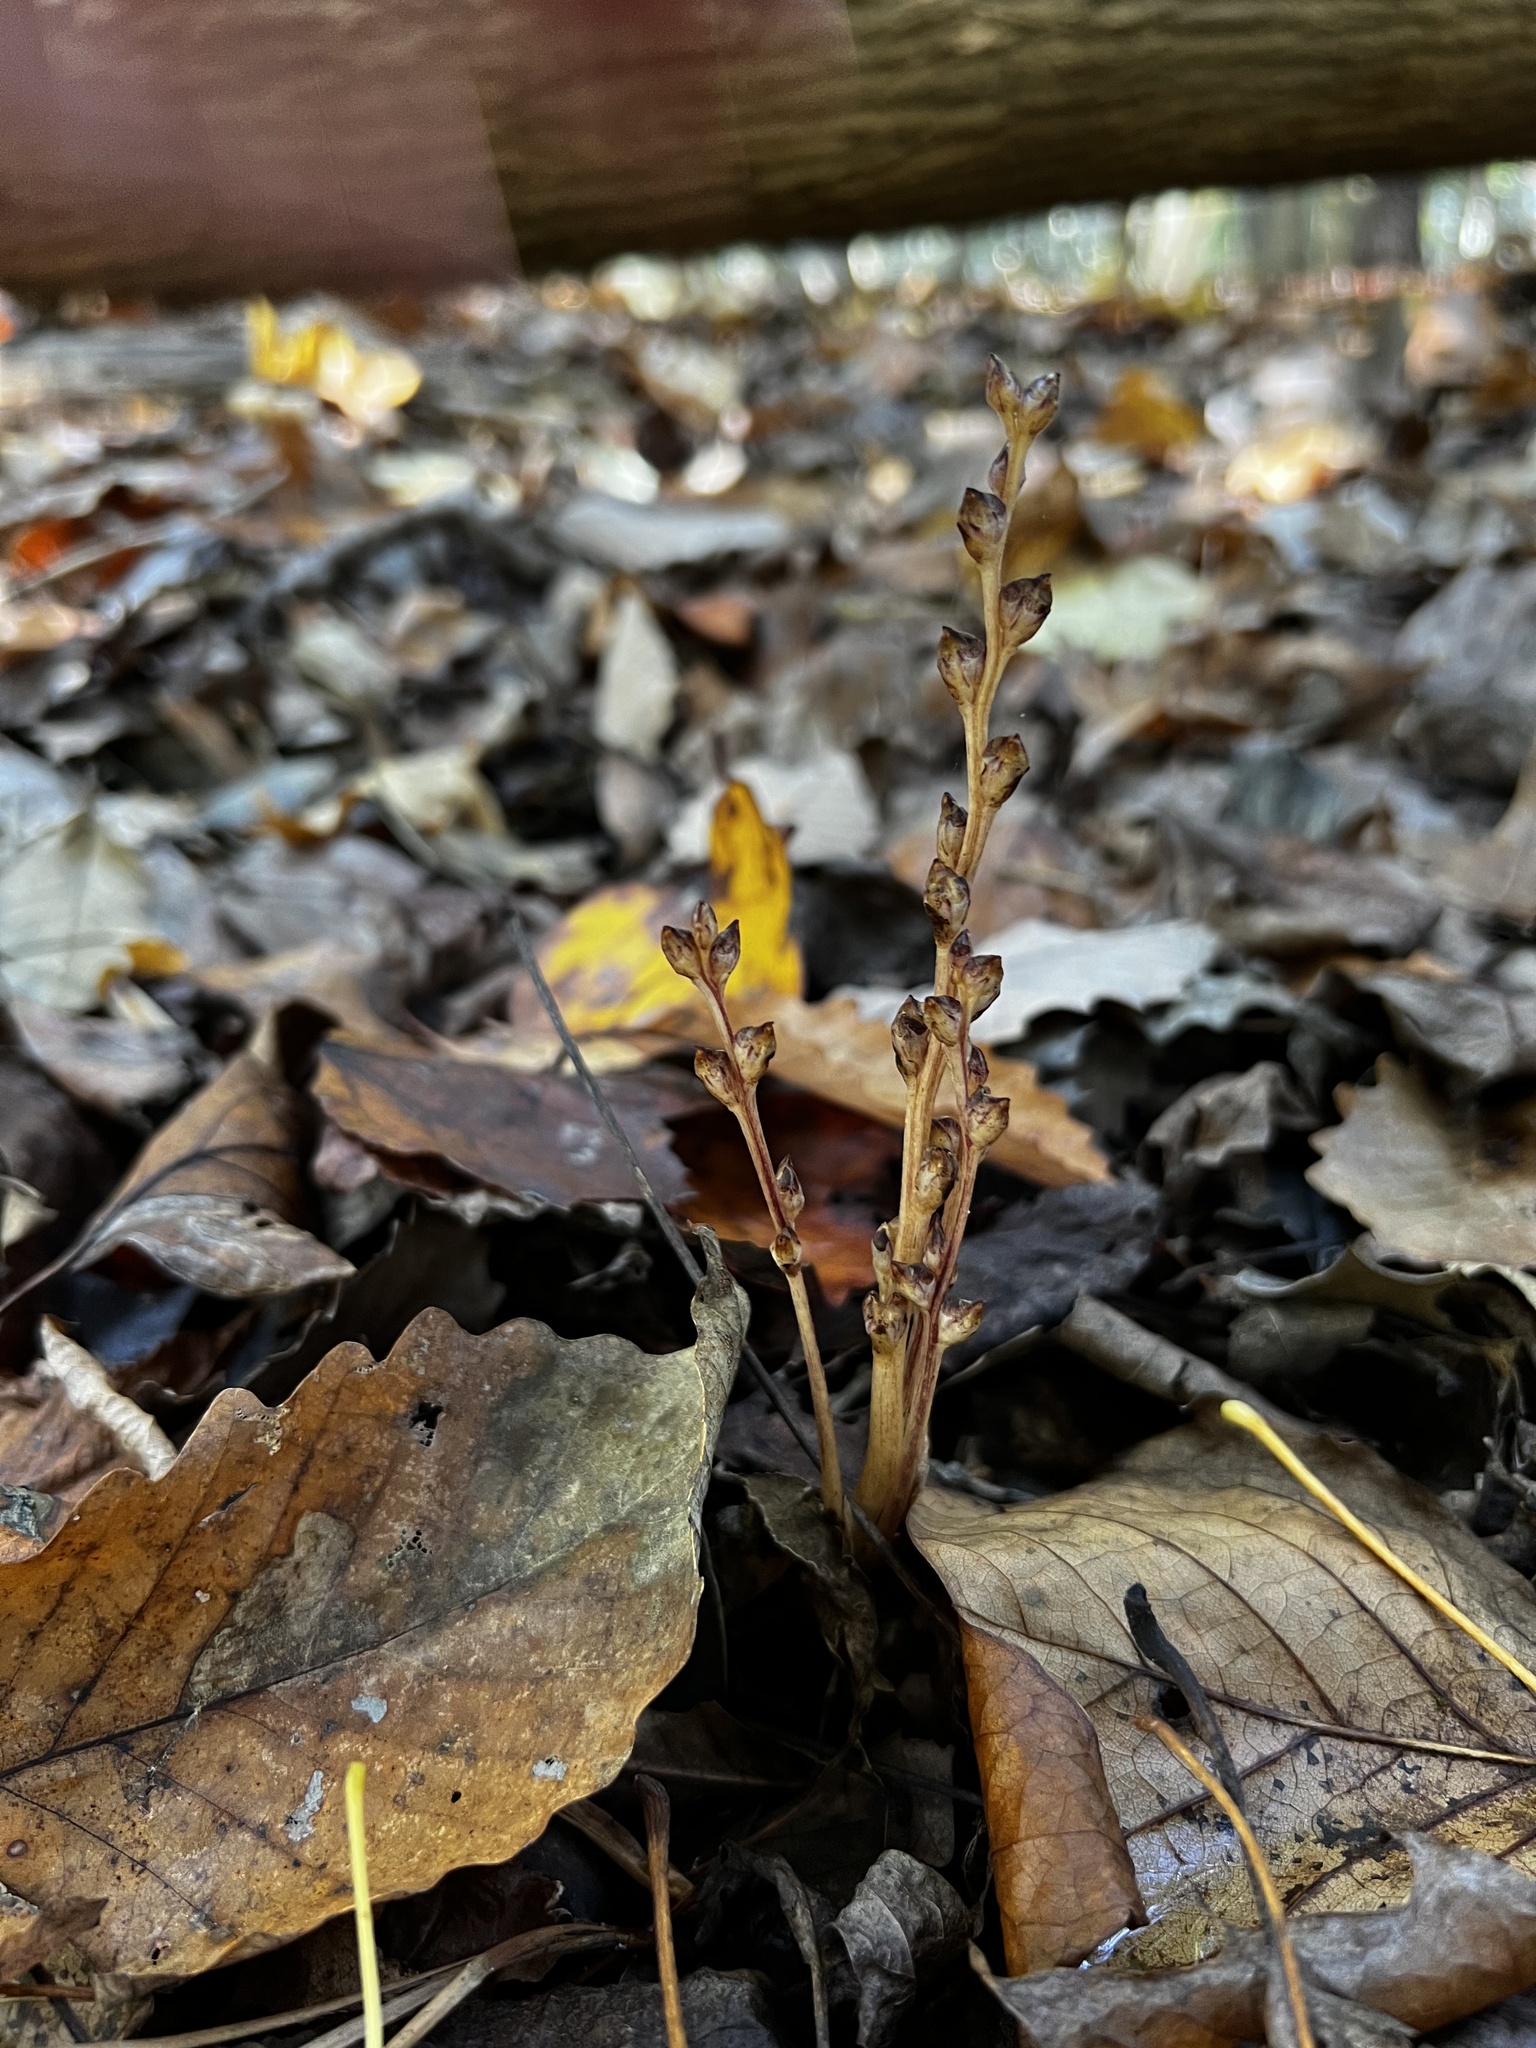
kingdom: Plantae
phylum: Tracheophyta
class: Magnoliopsida
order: Lamiales
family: Orobanchaceae
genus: Epifagus
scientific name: Epifagus virginiana
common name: Beechdrops
